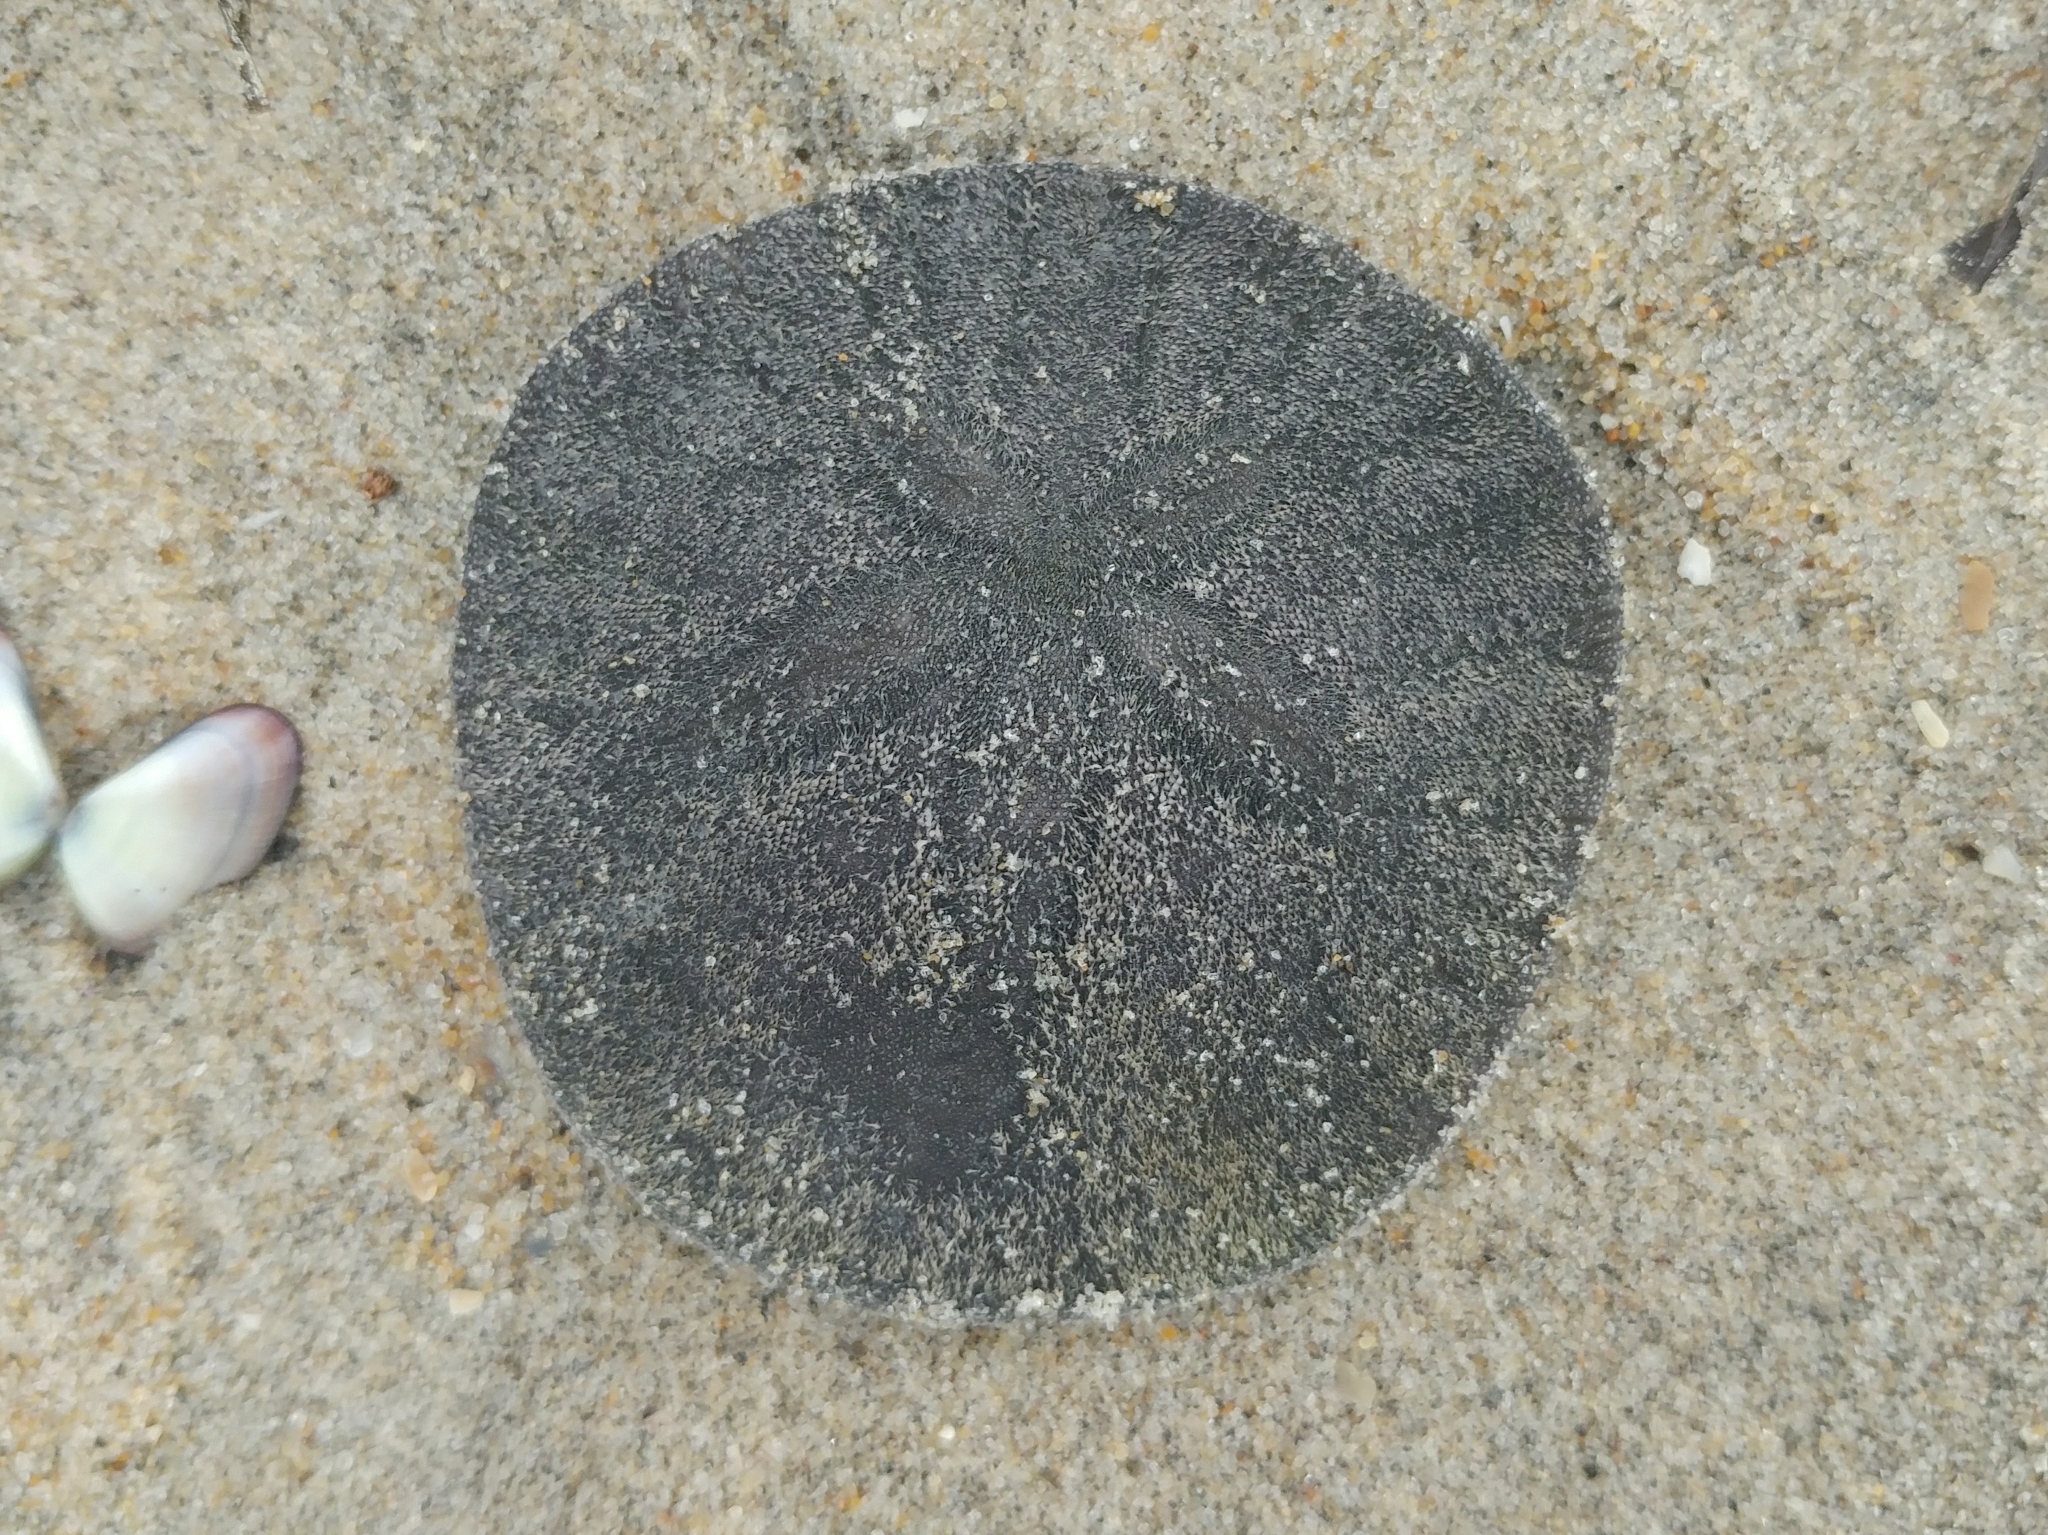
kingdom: Animalia
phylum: Echinodermata
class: Echinoidea
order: Echinolampadacea
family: Dendrasteridae
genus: Dendraster
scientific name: Dendraster excentricus
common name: Eccentric sand dollar sea urchin
